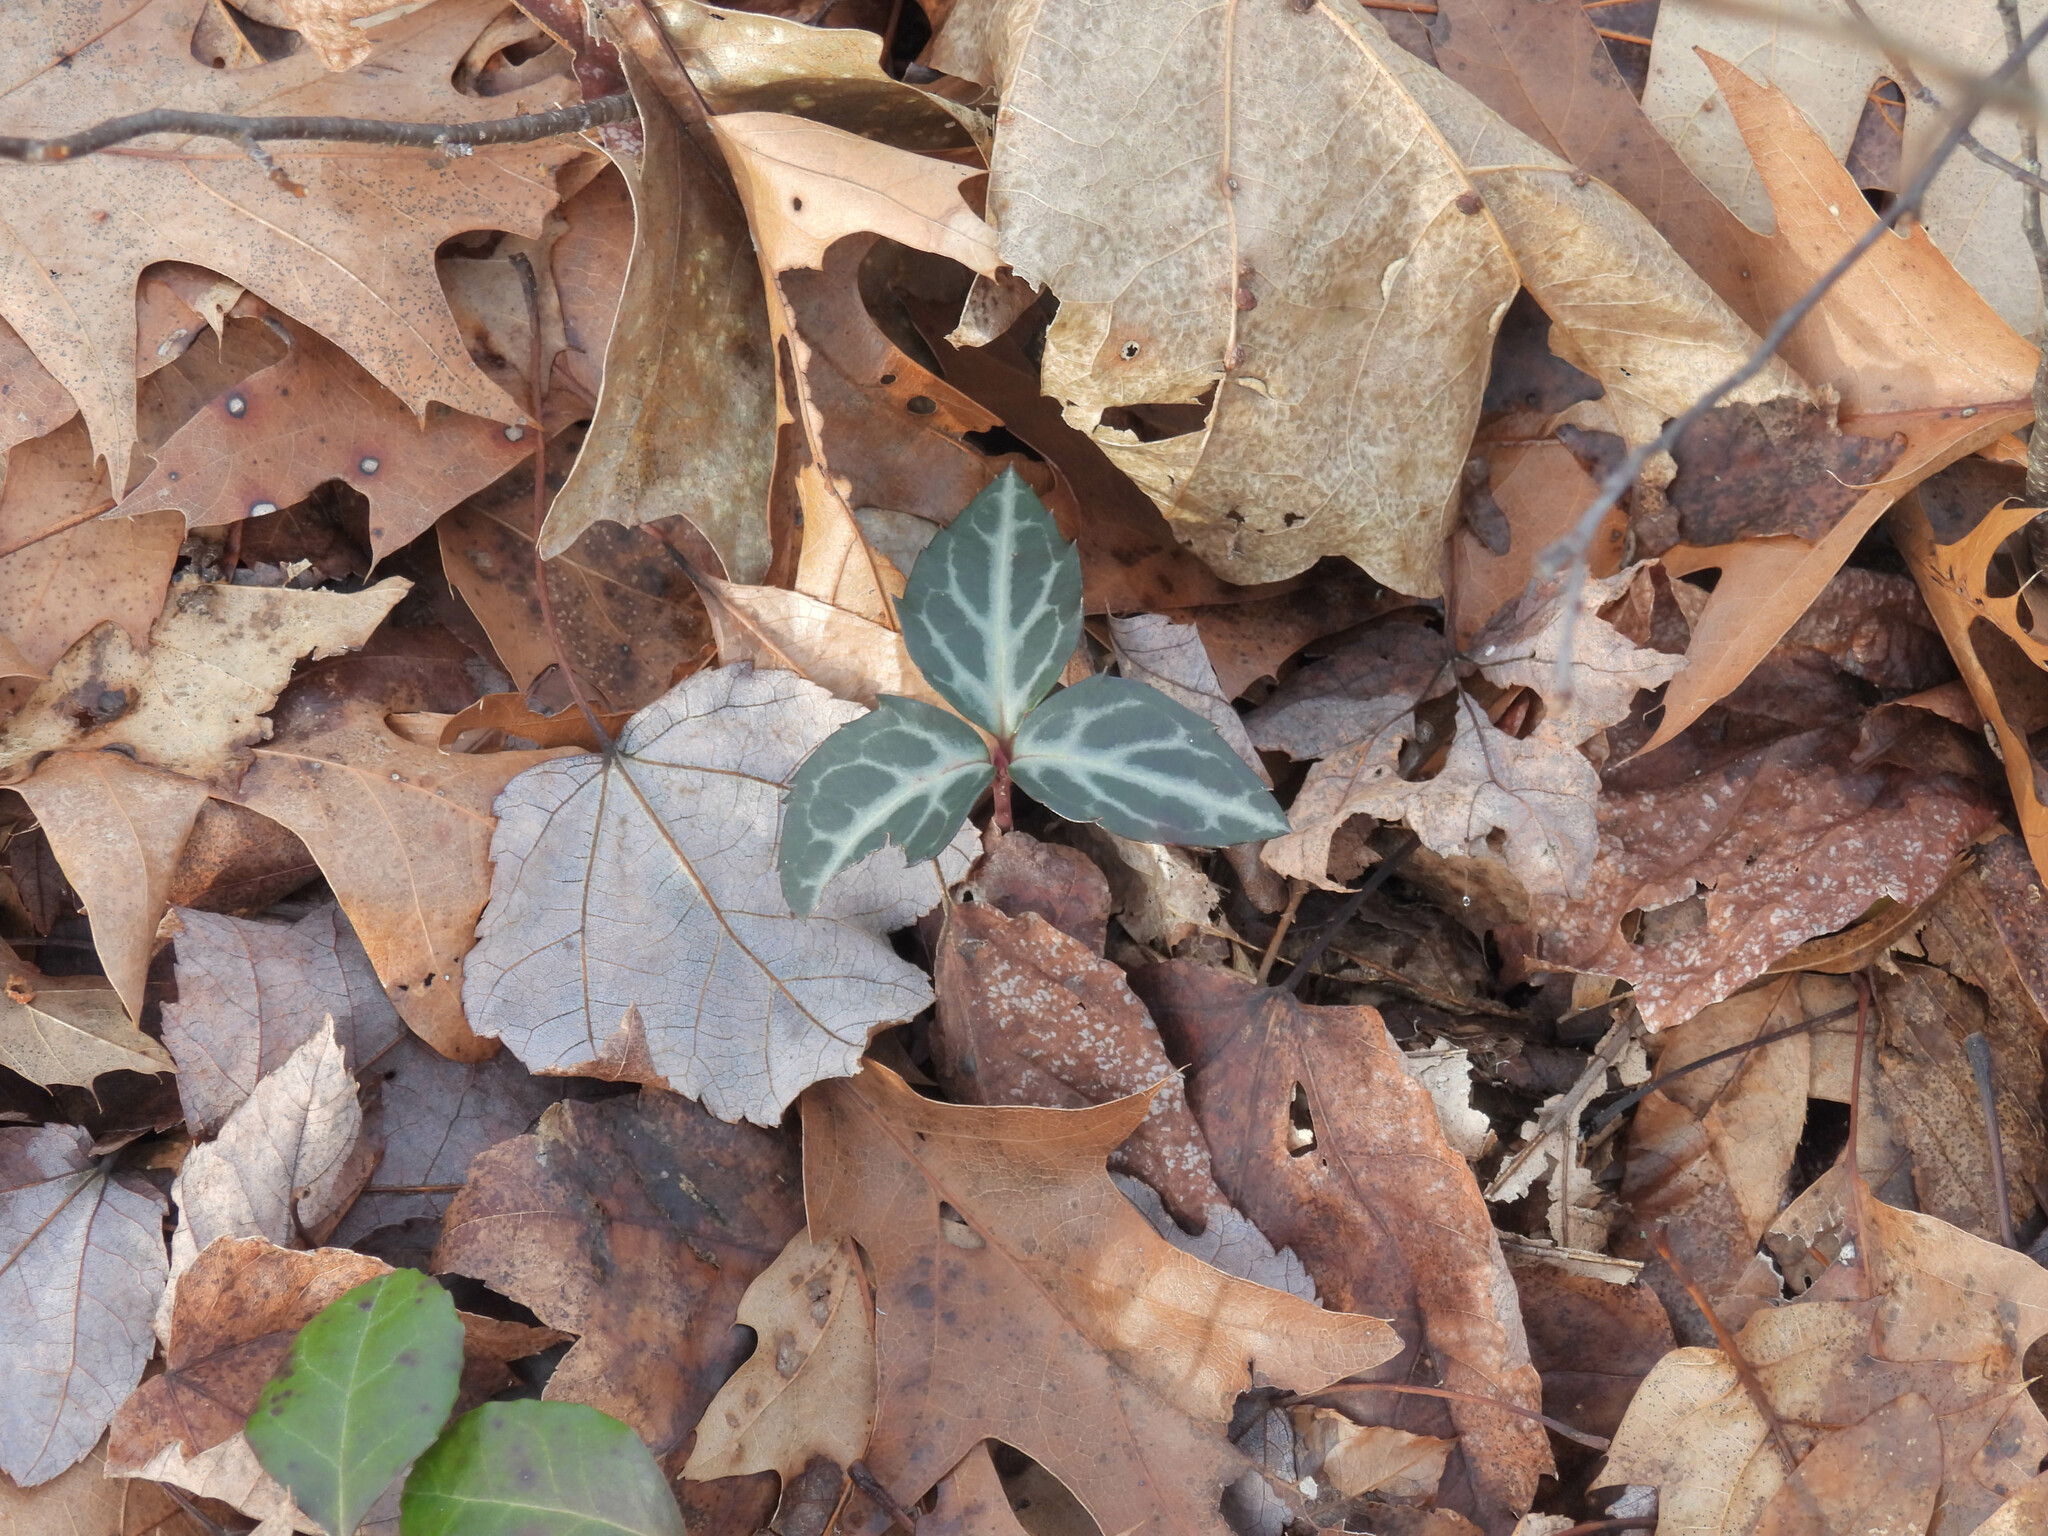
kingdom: Plantae
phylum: Tracheophyta
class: Magnoliopsida
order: Ericales
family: Ericaceae
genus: Chimaphila
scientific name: Chimaphila maculata
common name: Spotted pipsissewa
